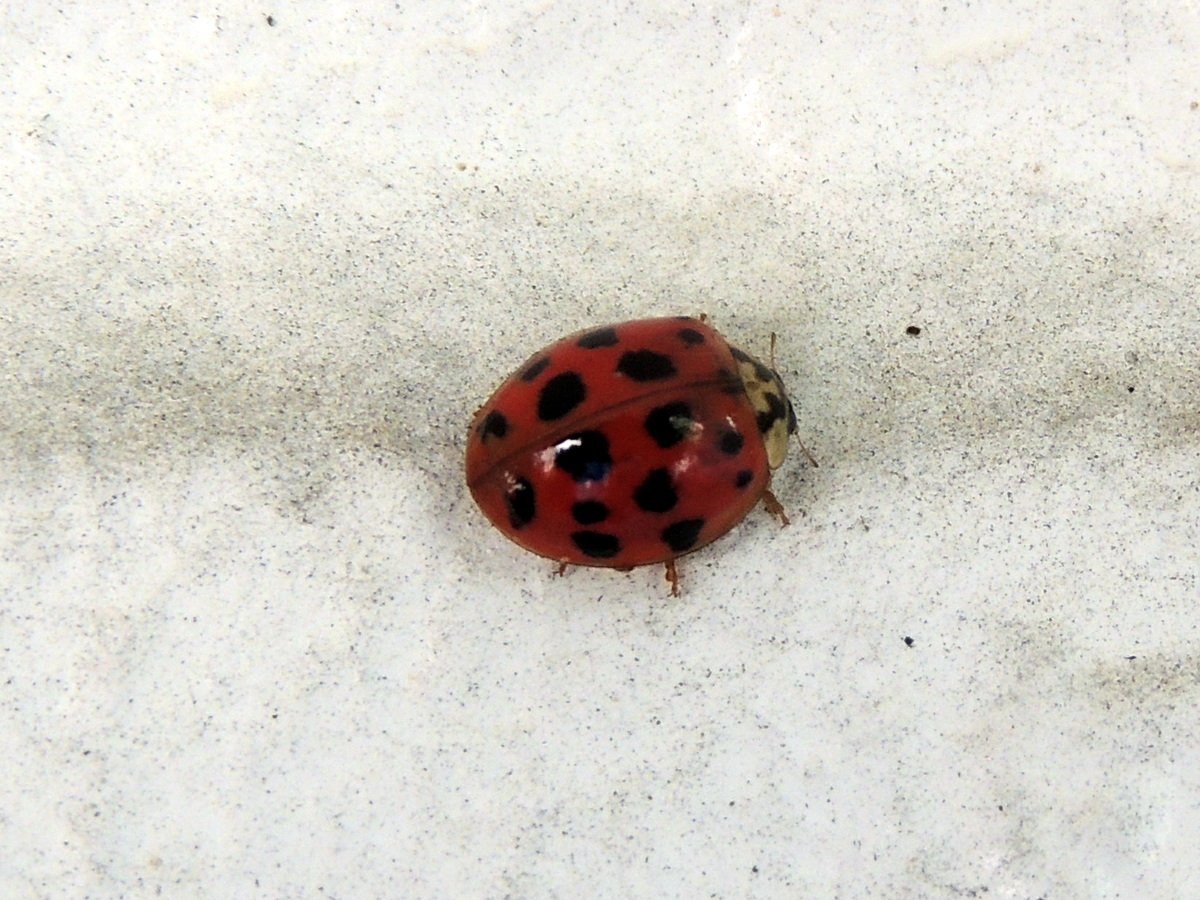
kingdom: Animalia
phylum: Arthropoda
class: Insecta
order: Coleoptera
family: Coccinellidae
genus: Harmonia
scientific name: Harmonia axyridis
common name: Harlequin ladybird
